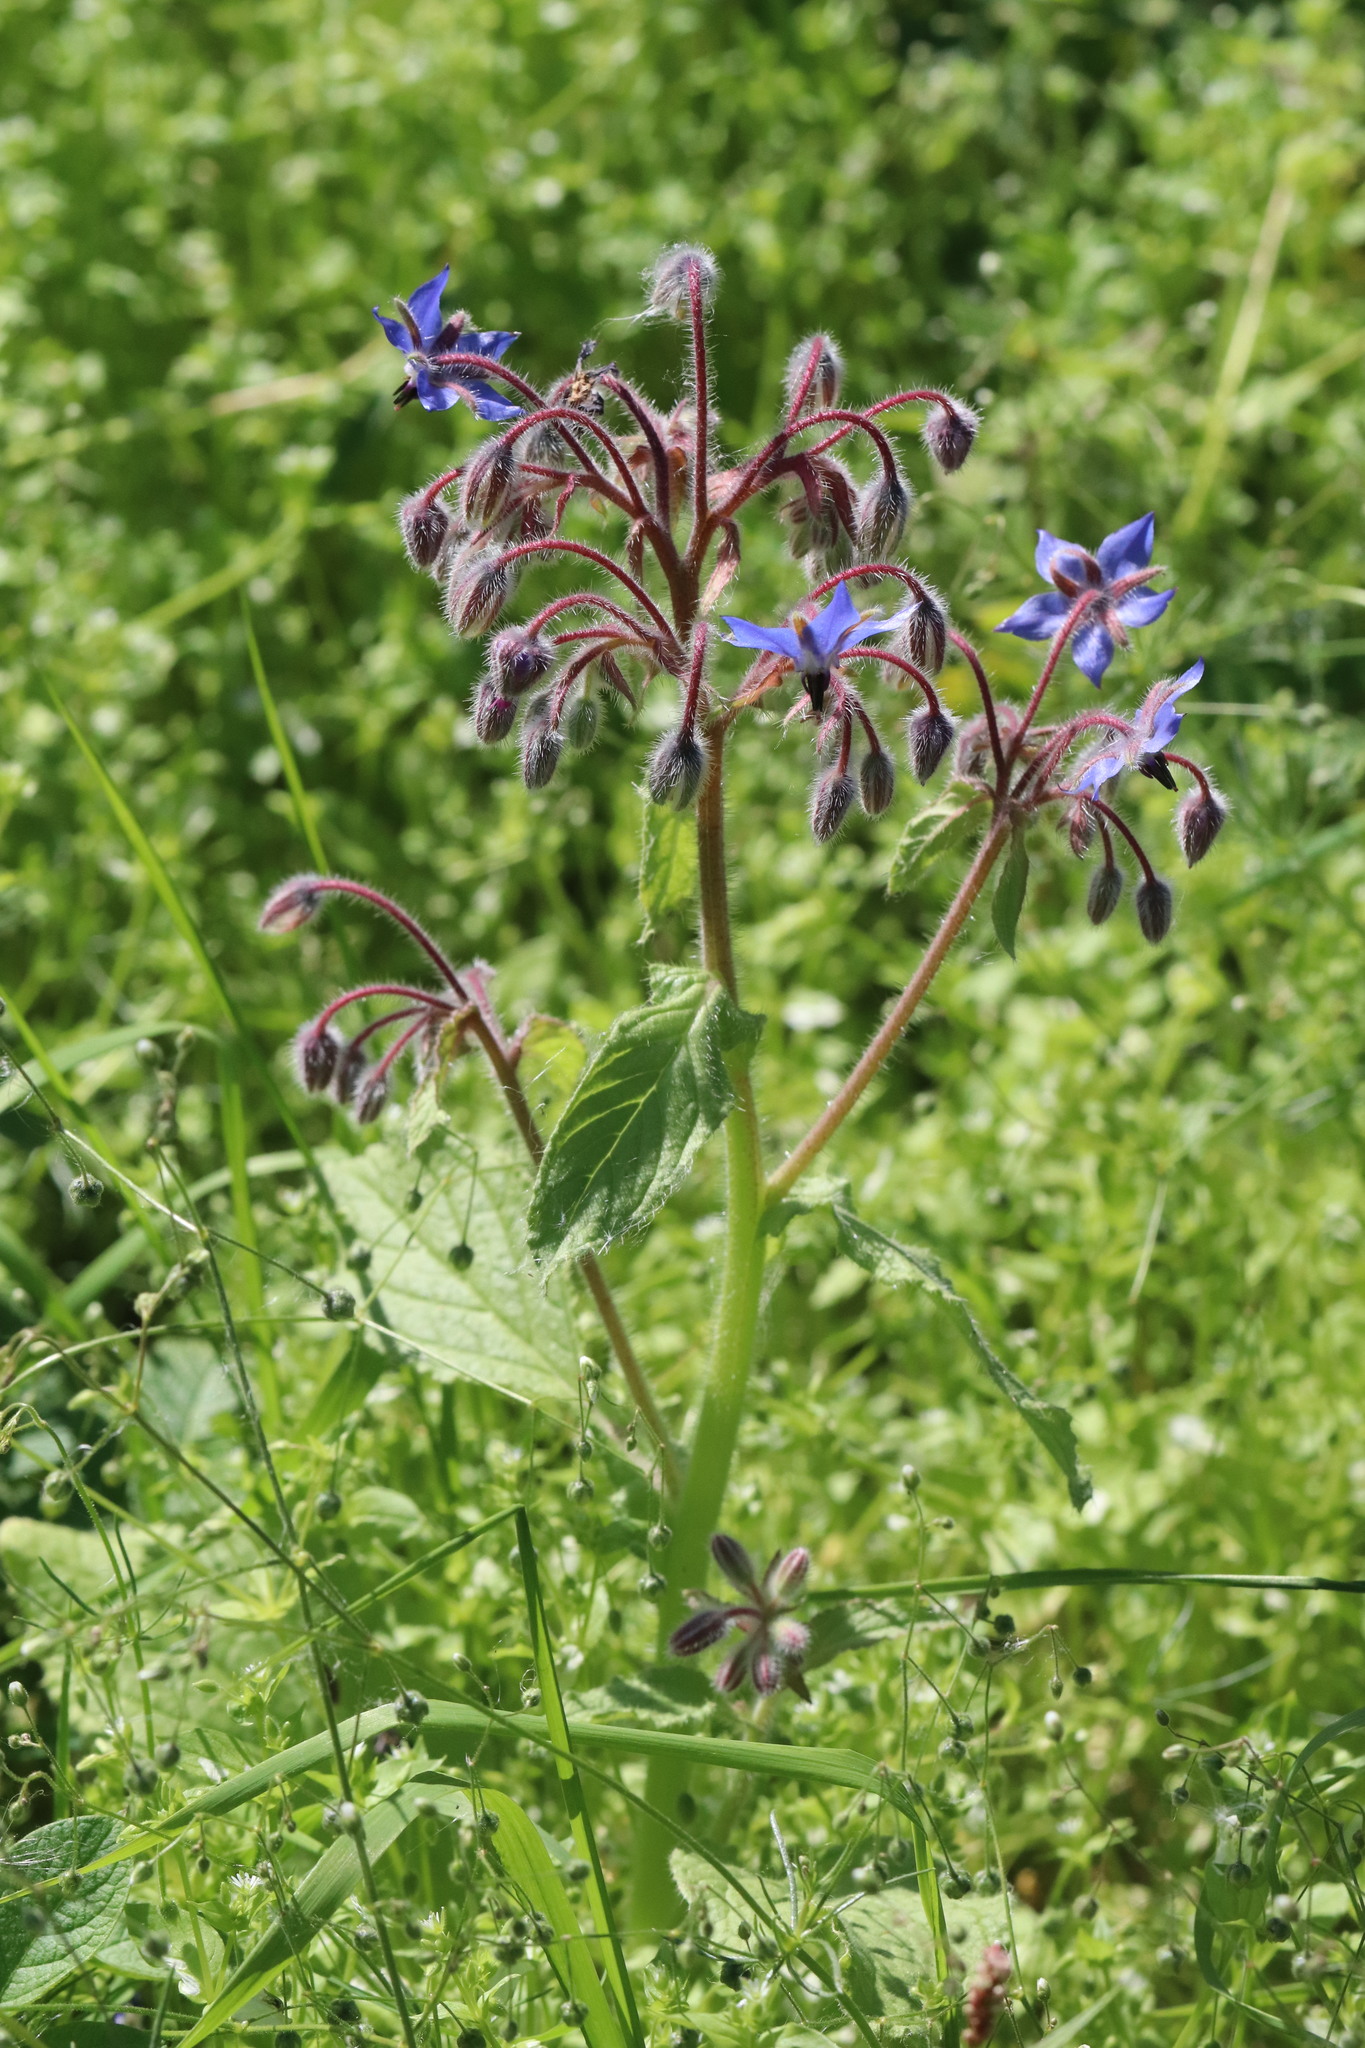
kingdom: Plantae
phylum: Tracheophyta
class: Magnoliopsida
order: Boraginales
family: Boraginaceae
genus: Borago
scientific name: Borago officinalis
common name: Borage
